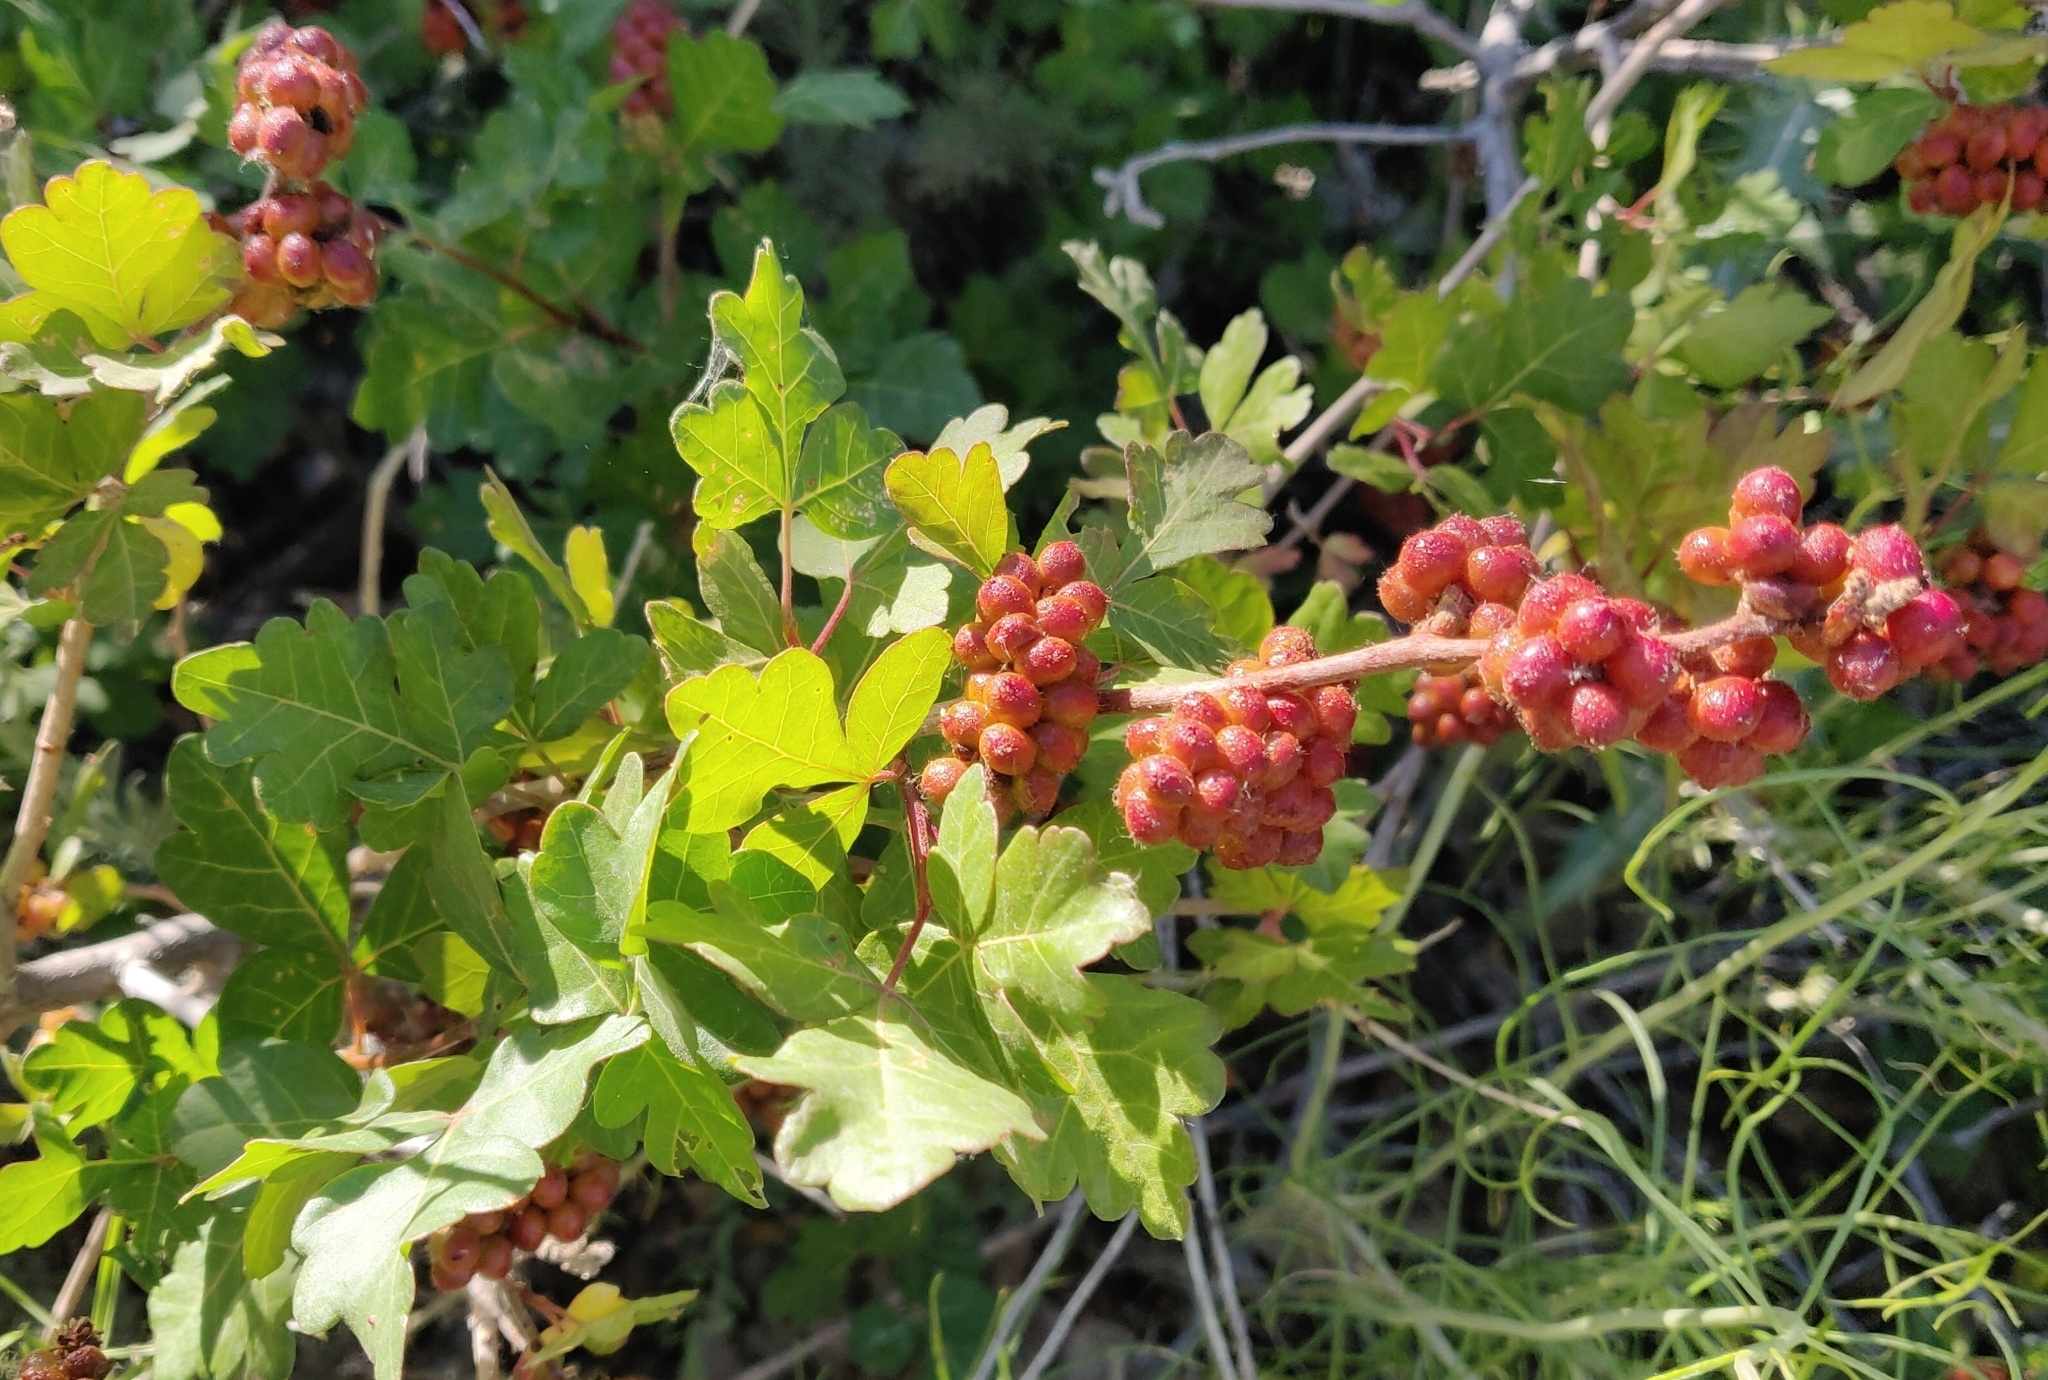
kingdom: Plantae
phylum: Tracheophyta
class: Magnoliopsida
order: Sapindales
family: Anacardiaceae
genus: Rhus
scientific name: Rhus aromatica
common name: Aromatic sumac
